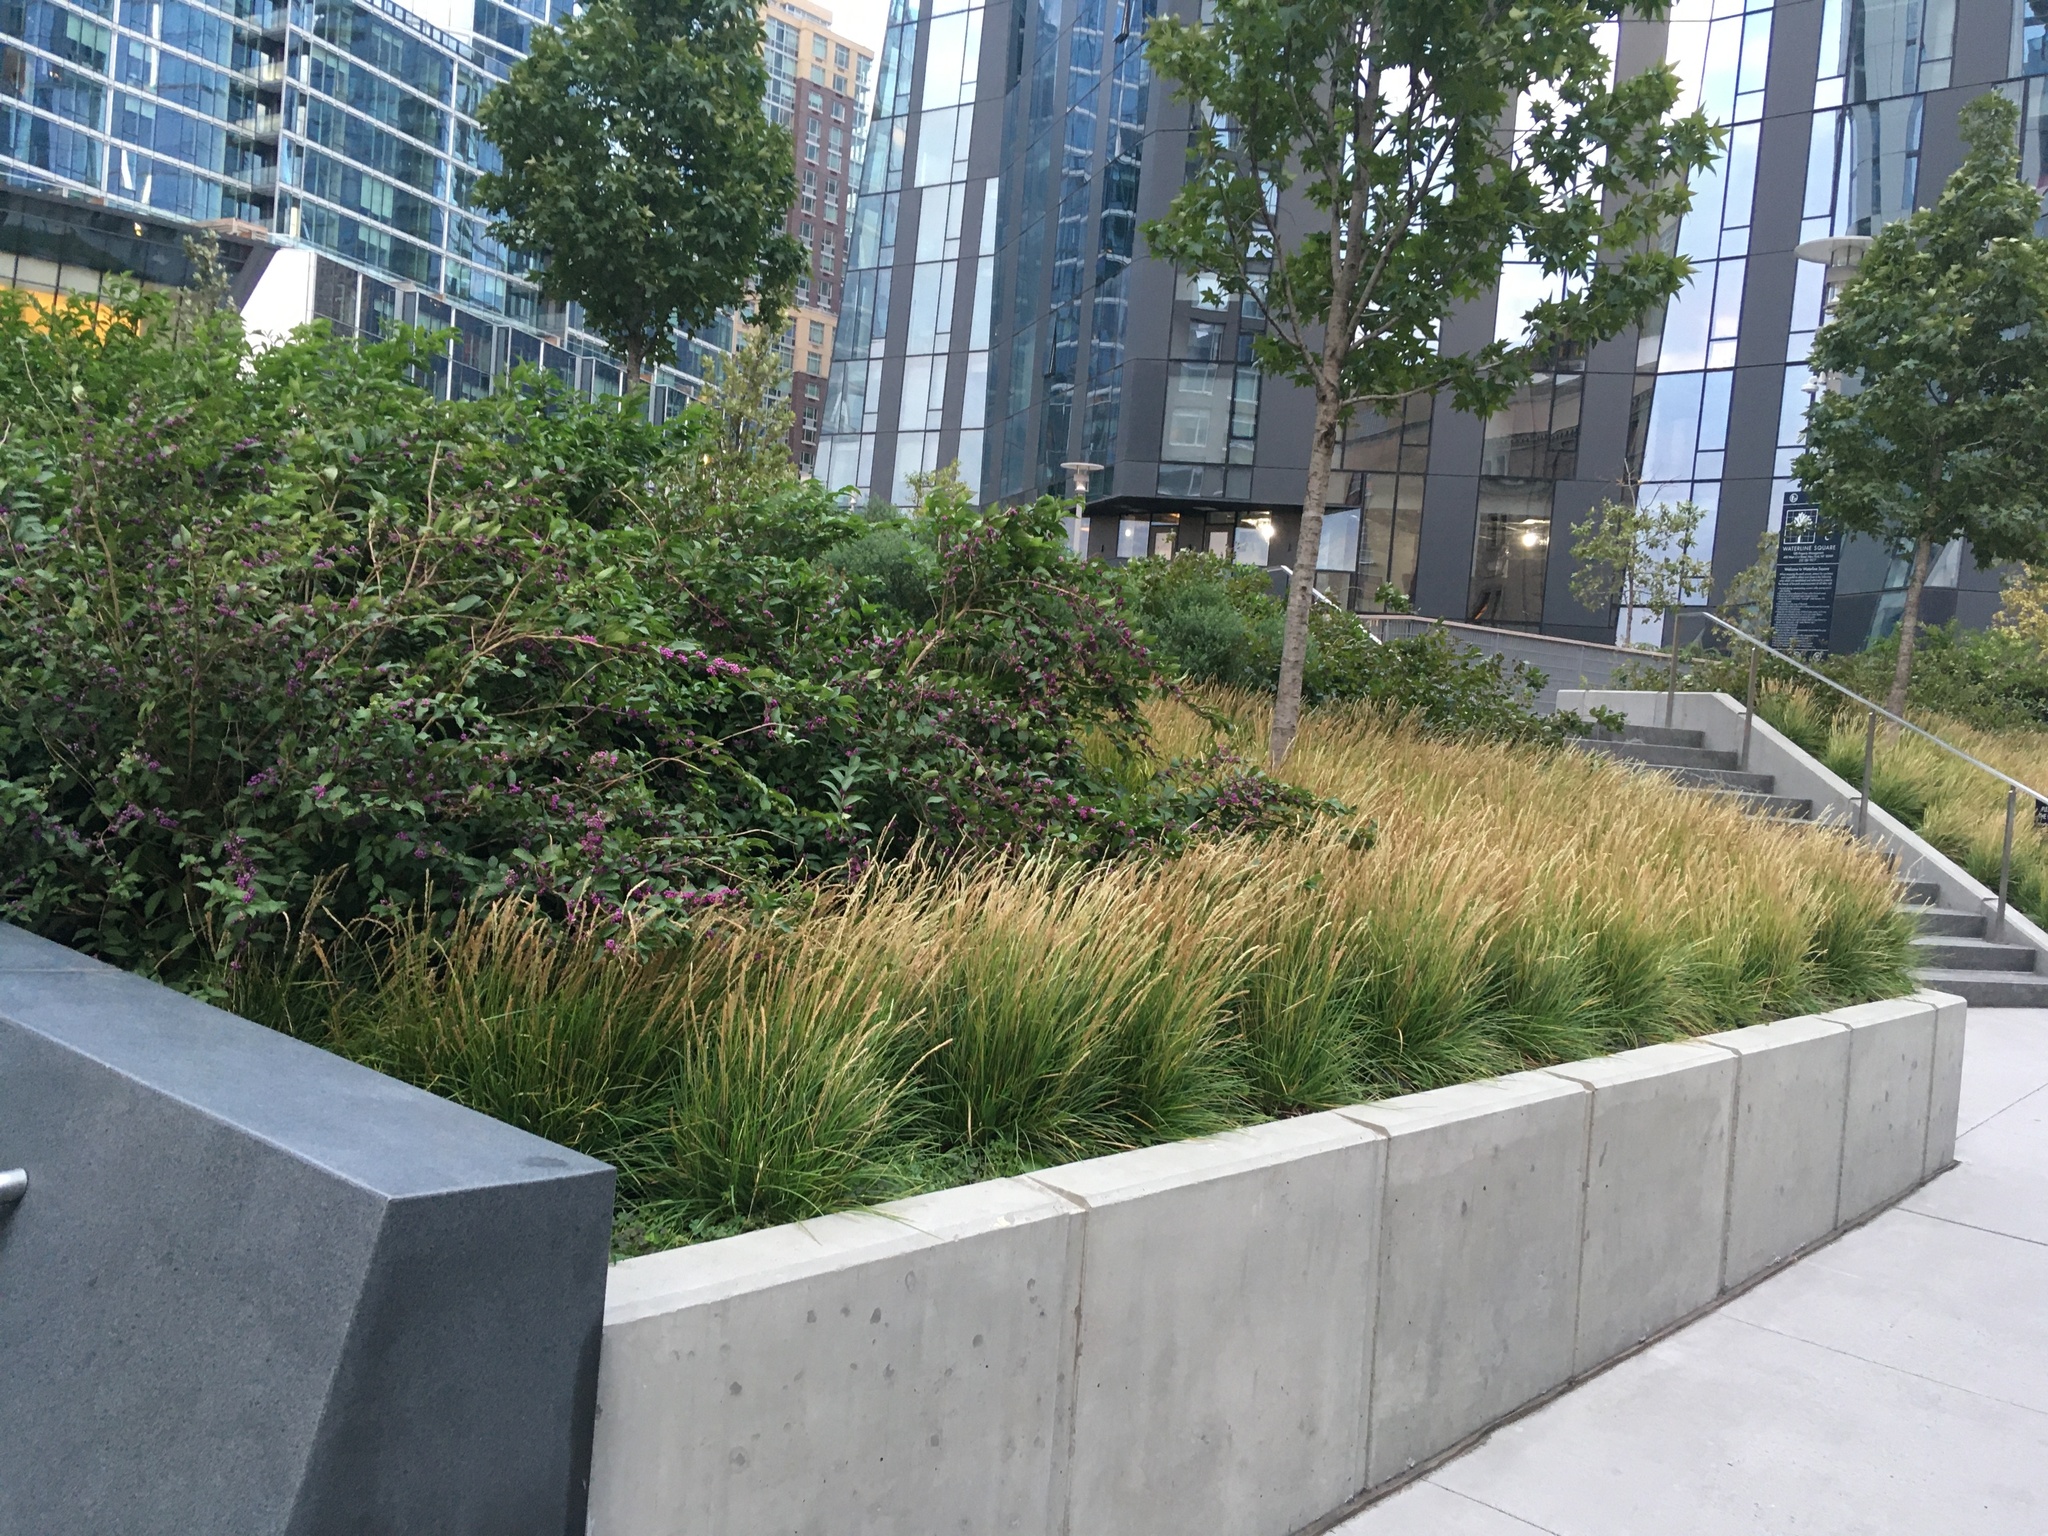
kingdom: Plantae
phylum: Tracheophyta
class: Magnoliopsida
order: Malpighiales
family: Phyllanthaceae
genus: Phyllanthus
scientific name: Phyllanthus tenellus
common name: Mascarene island leaf-flower
